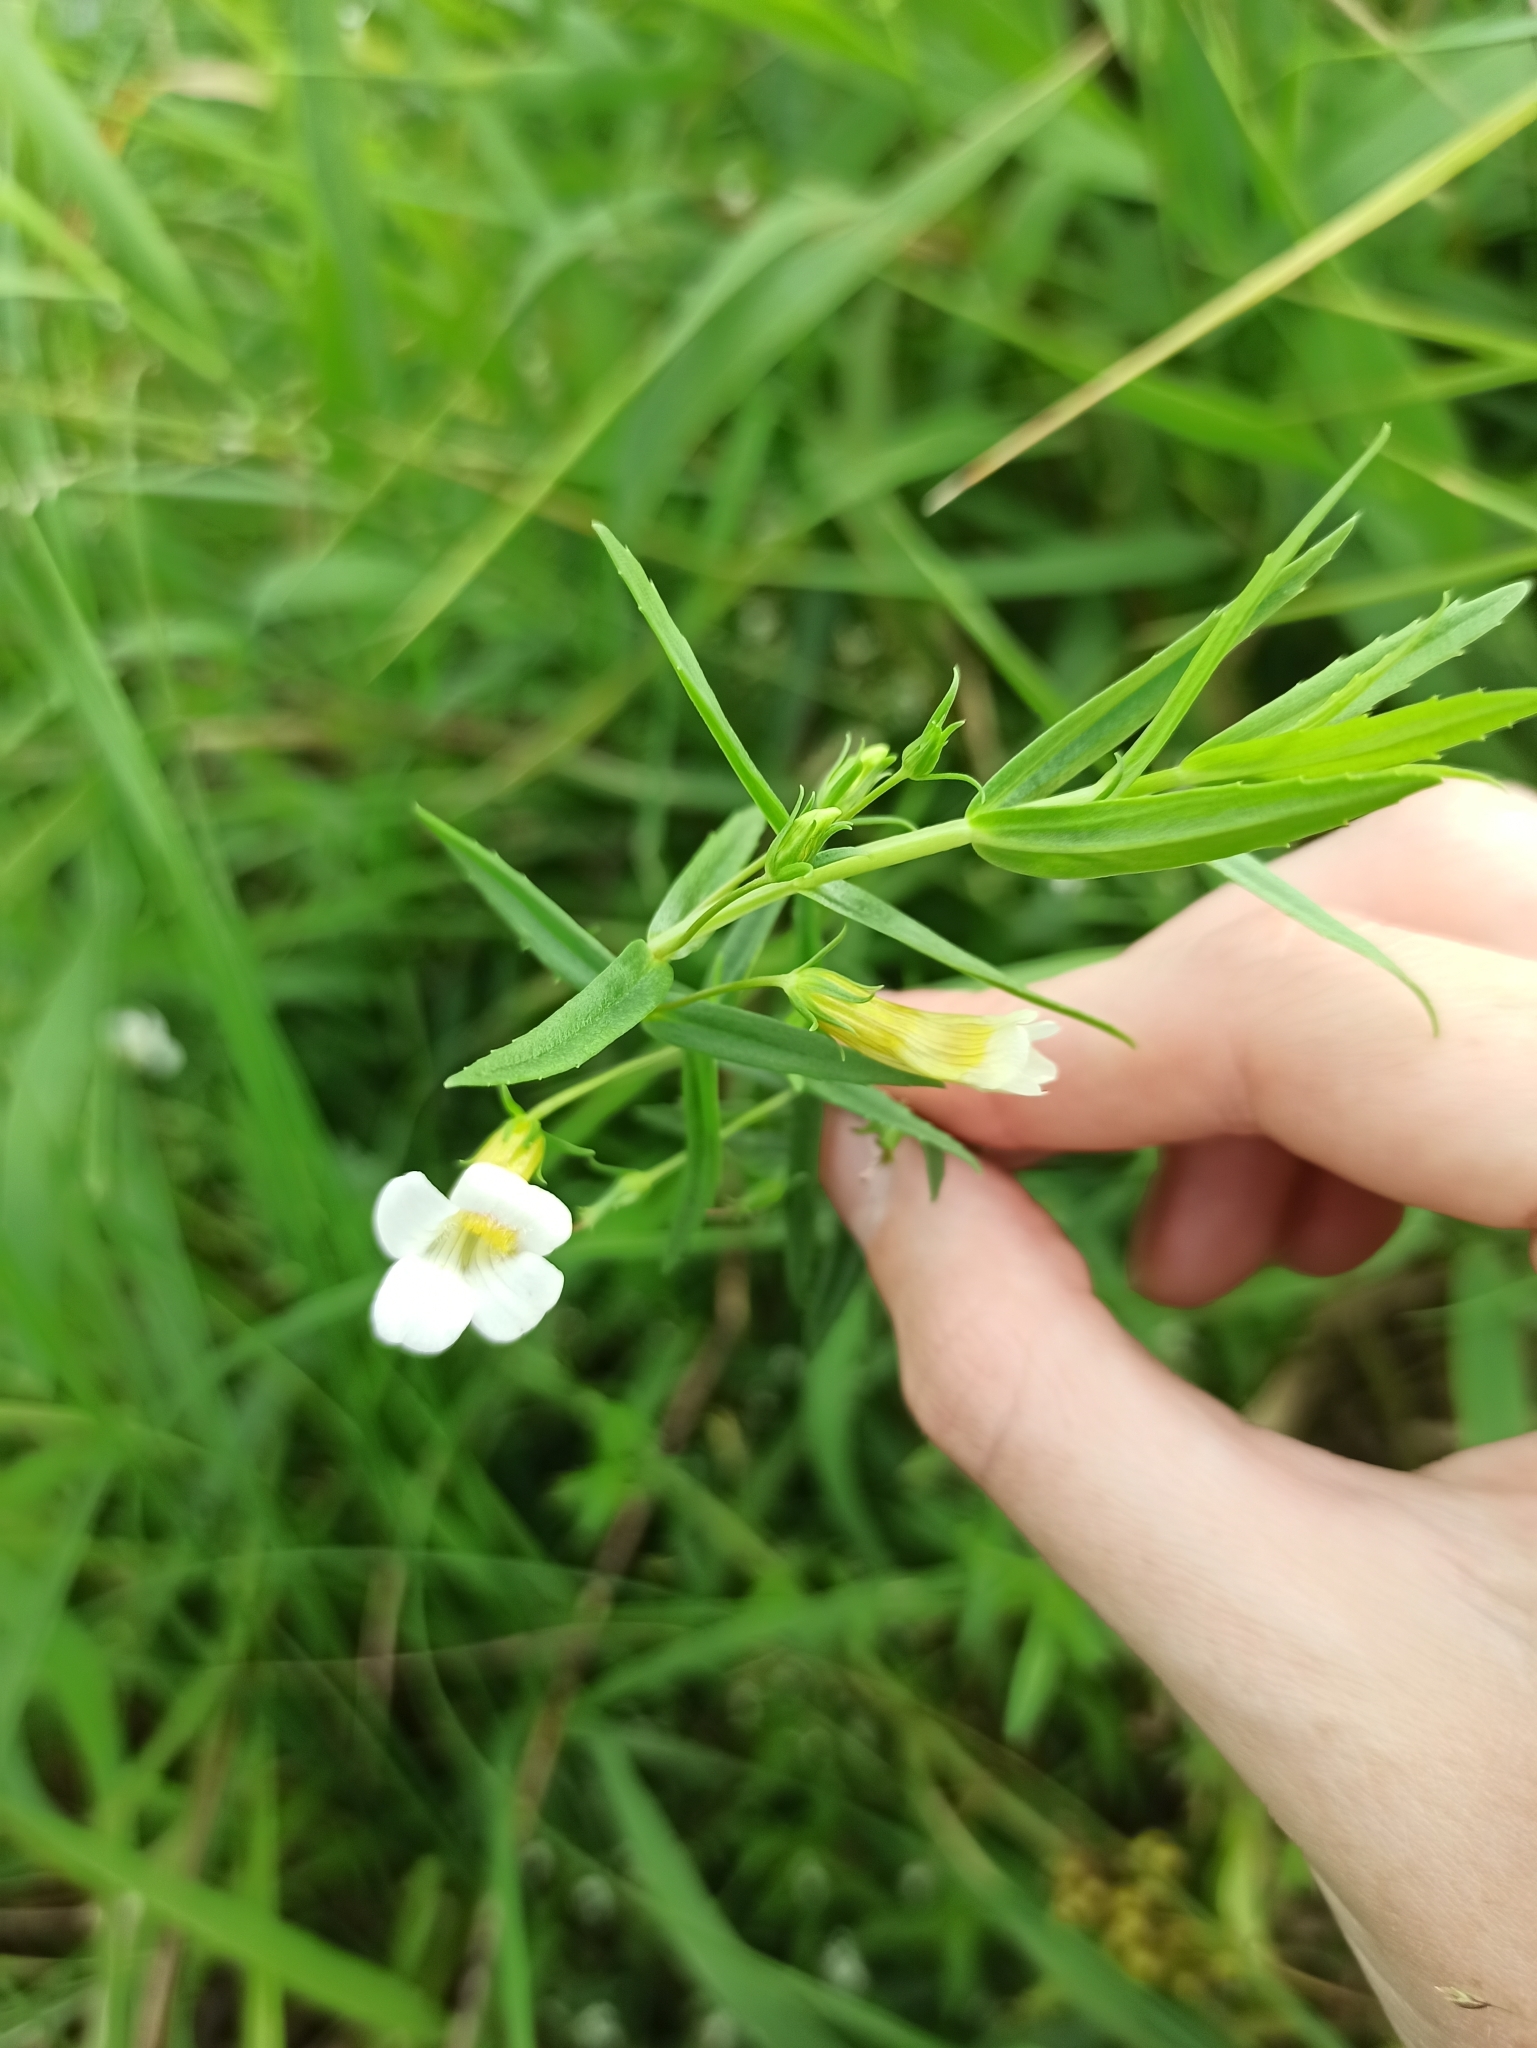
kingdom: Plantae
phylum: Tracheophyta
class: Magnoliopsida
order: Lamiales
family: Plantaginaceae
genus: Gratiola
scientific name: Gratiola officinalis
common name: Gratiola
